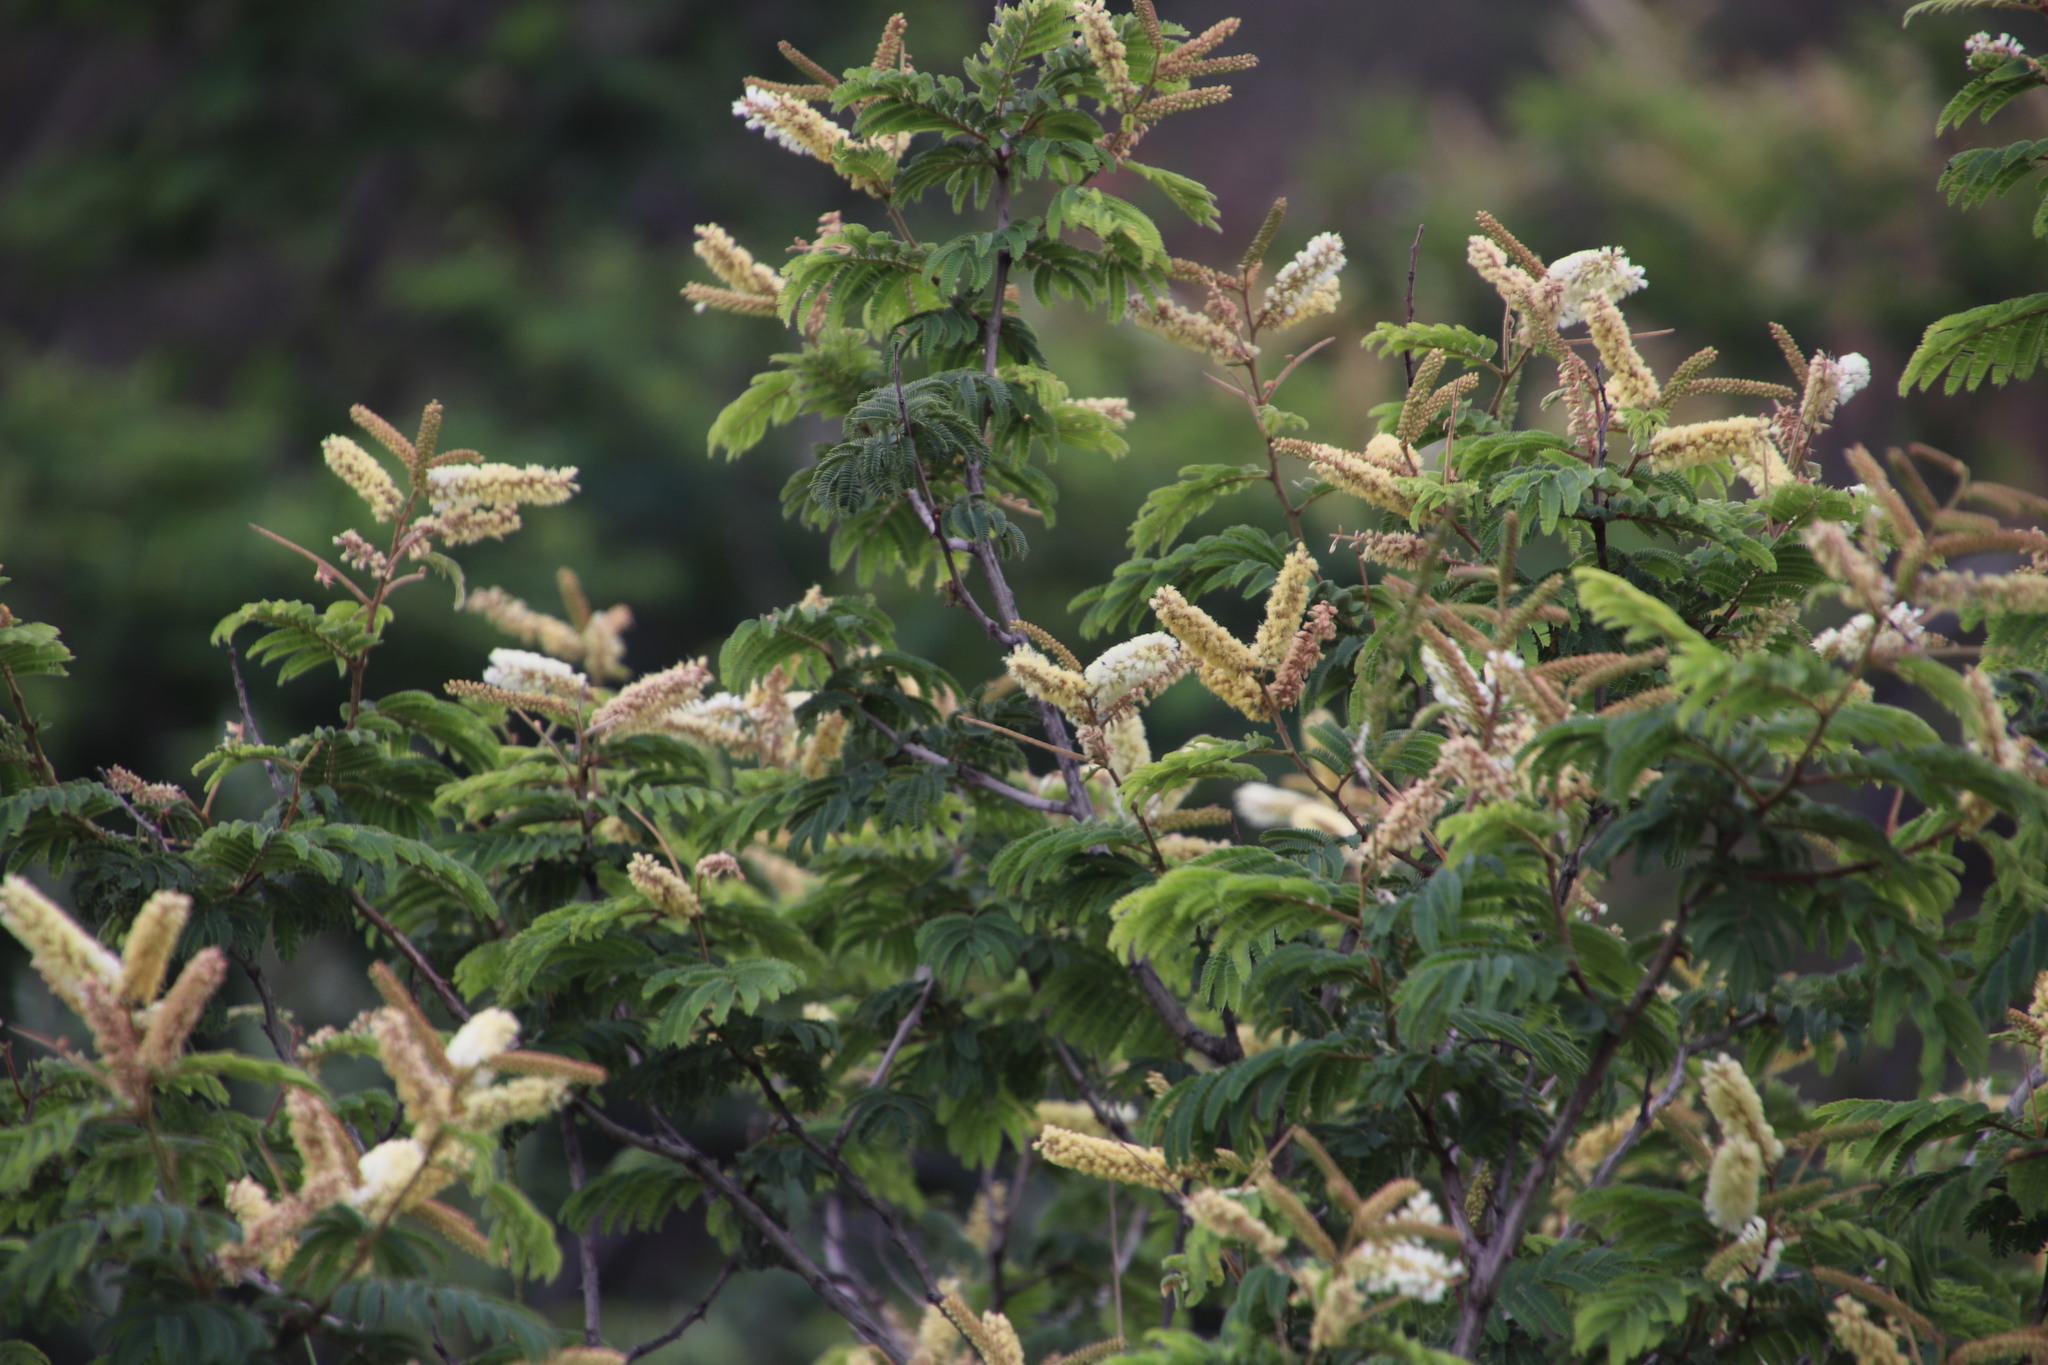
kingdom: Plantae
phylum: Tracheophyta
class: Magnoliopsida
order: Fabales
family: Fabaceae
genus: Senegalia
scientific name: Senegalia ataxacantha
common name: Flame acacia
